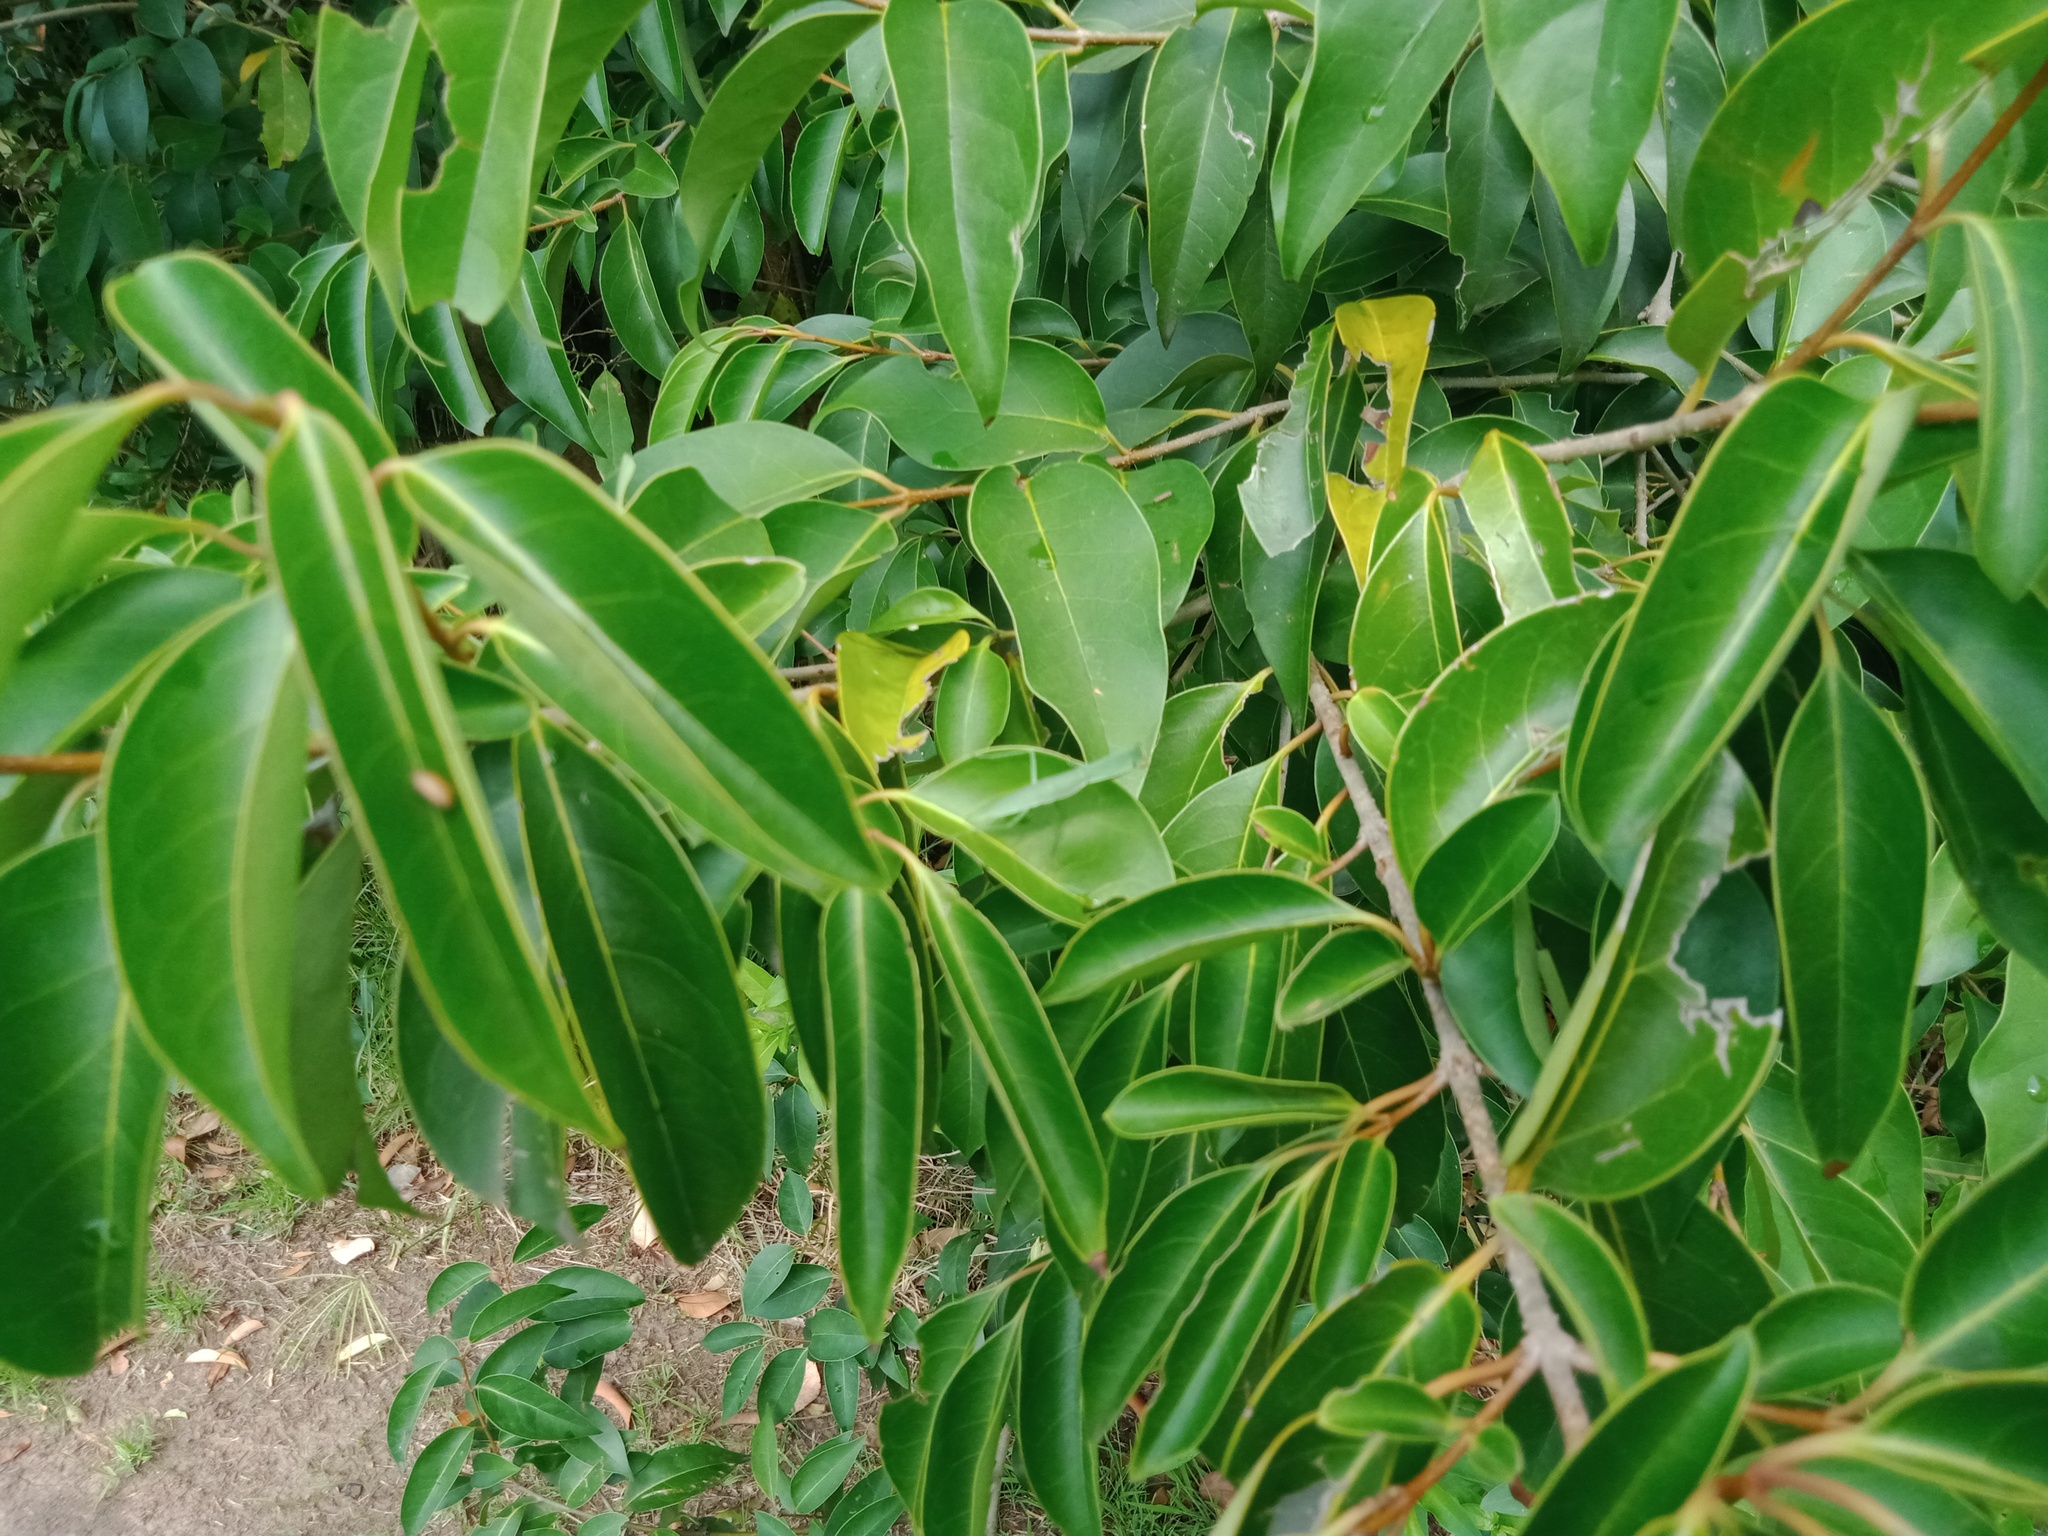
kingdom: Animalia
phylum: Arthropoda
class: Insecta
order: Mantodea
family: Mantidae
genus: Orthodera
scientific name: Orthodera ministralis
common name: Mantis
